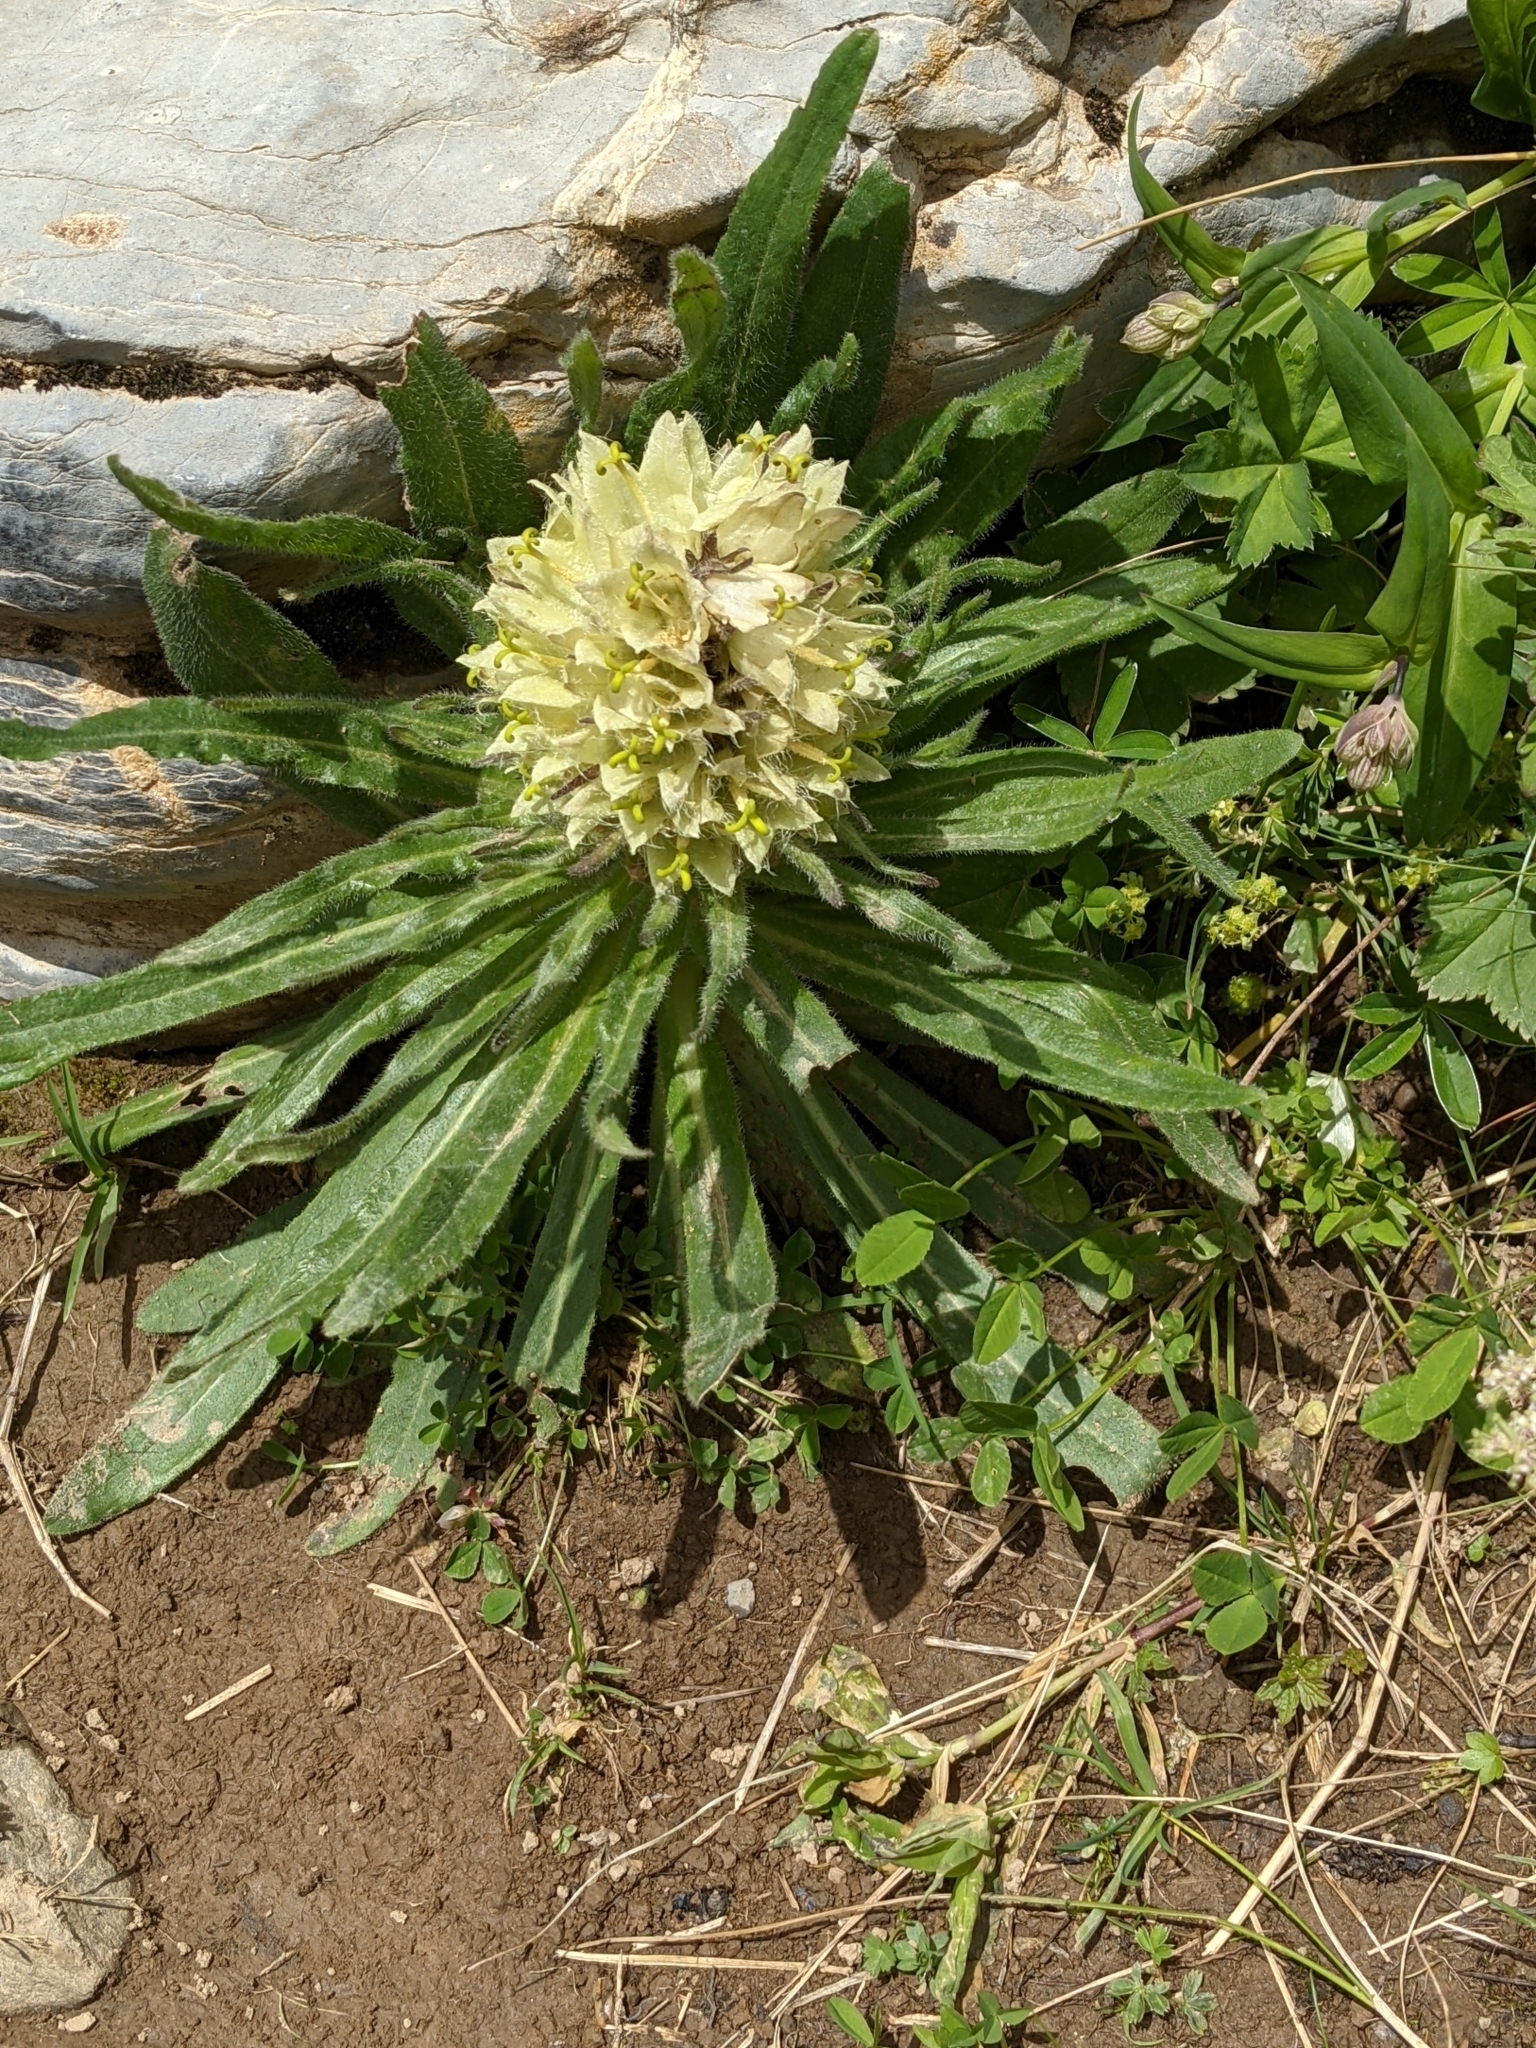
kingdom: Plantae
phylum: Tracheophyta
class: Magnoliopsida
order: Asterales
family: Campanulaceae
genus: Campanula
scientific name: Campanula thyrsoides
